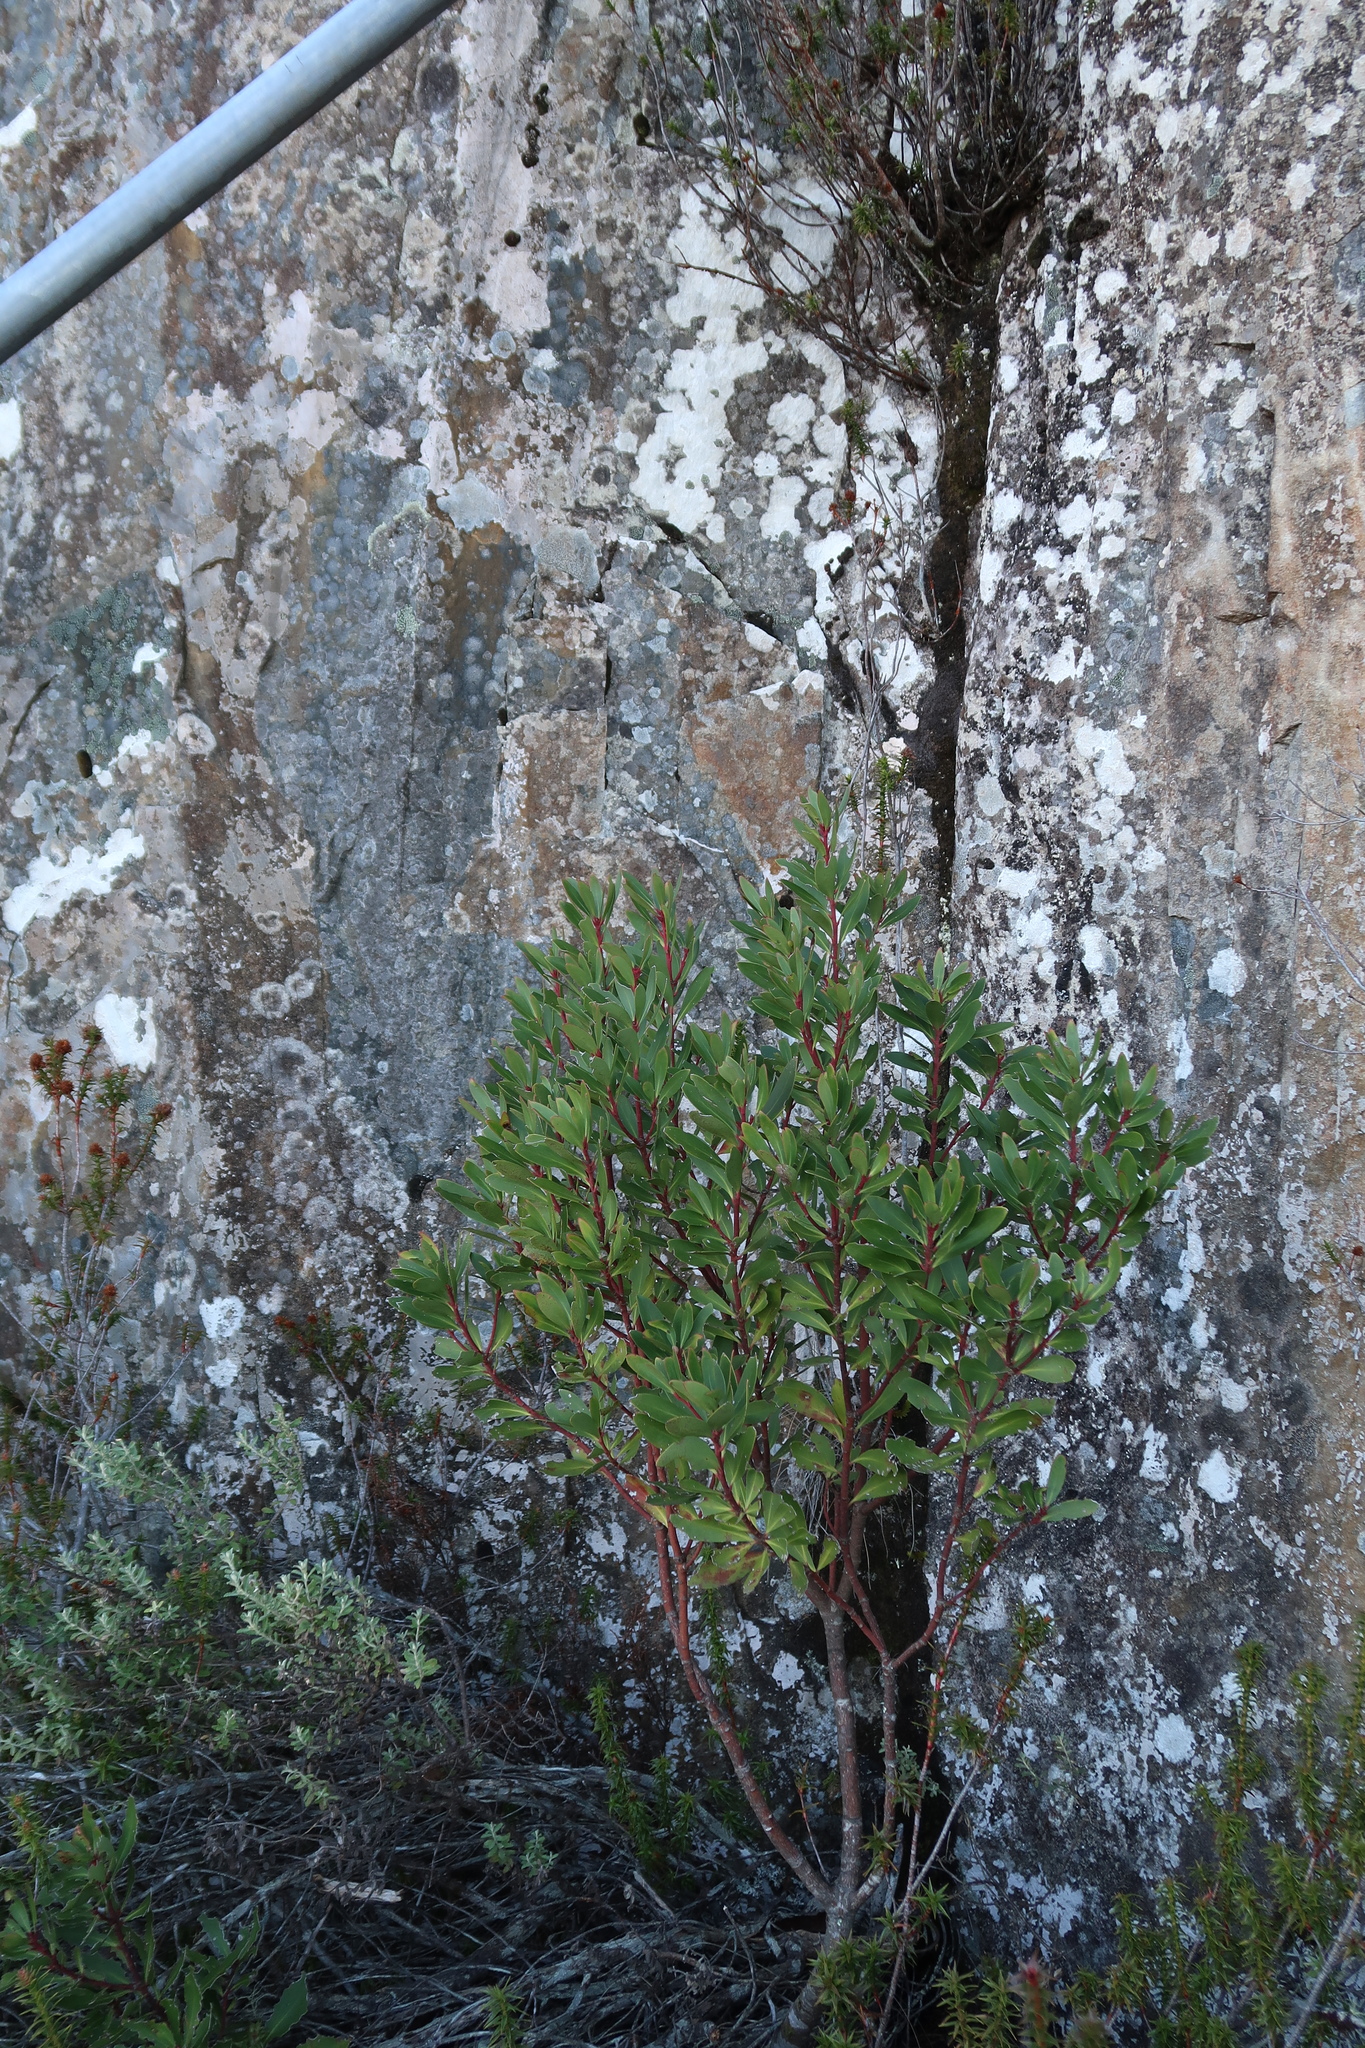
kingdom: Plantae
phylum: Tracheophyta
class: Magnoliopsida
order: Canellales
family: Winteraceae
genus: Drimys
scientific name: Drimys aromatica
